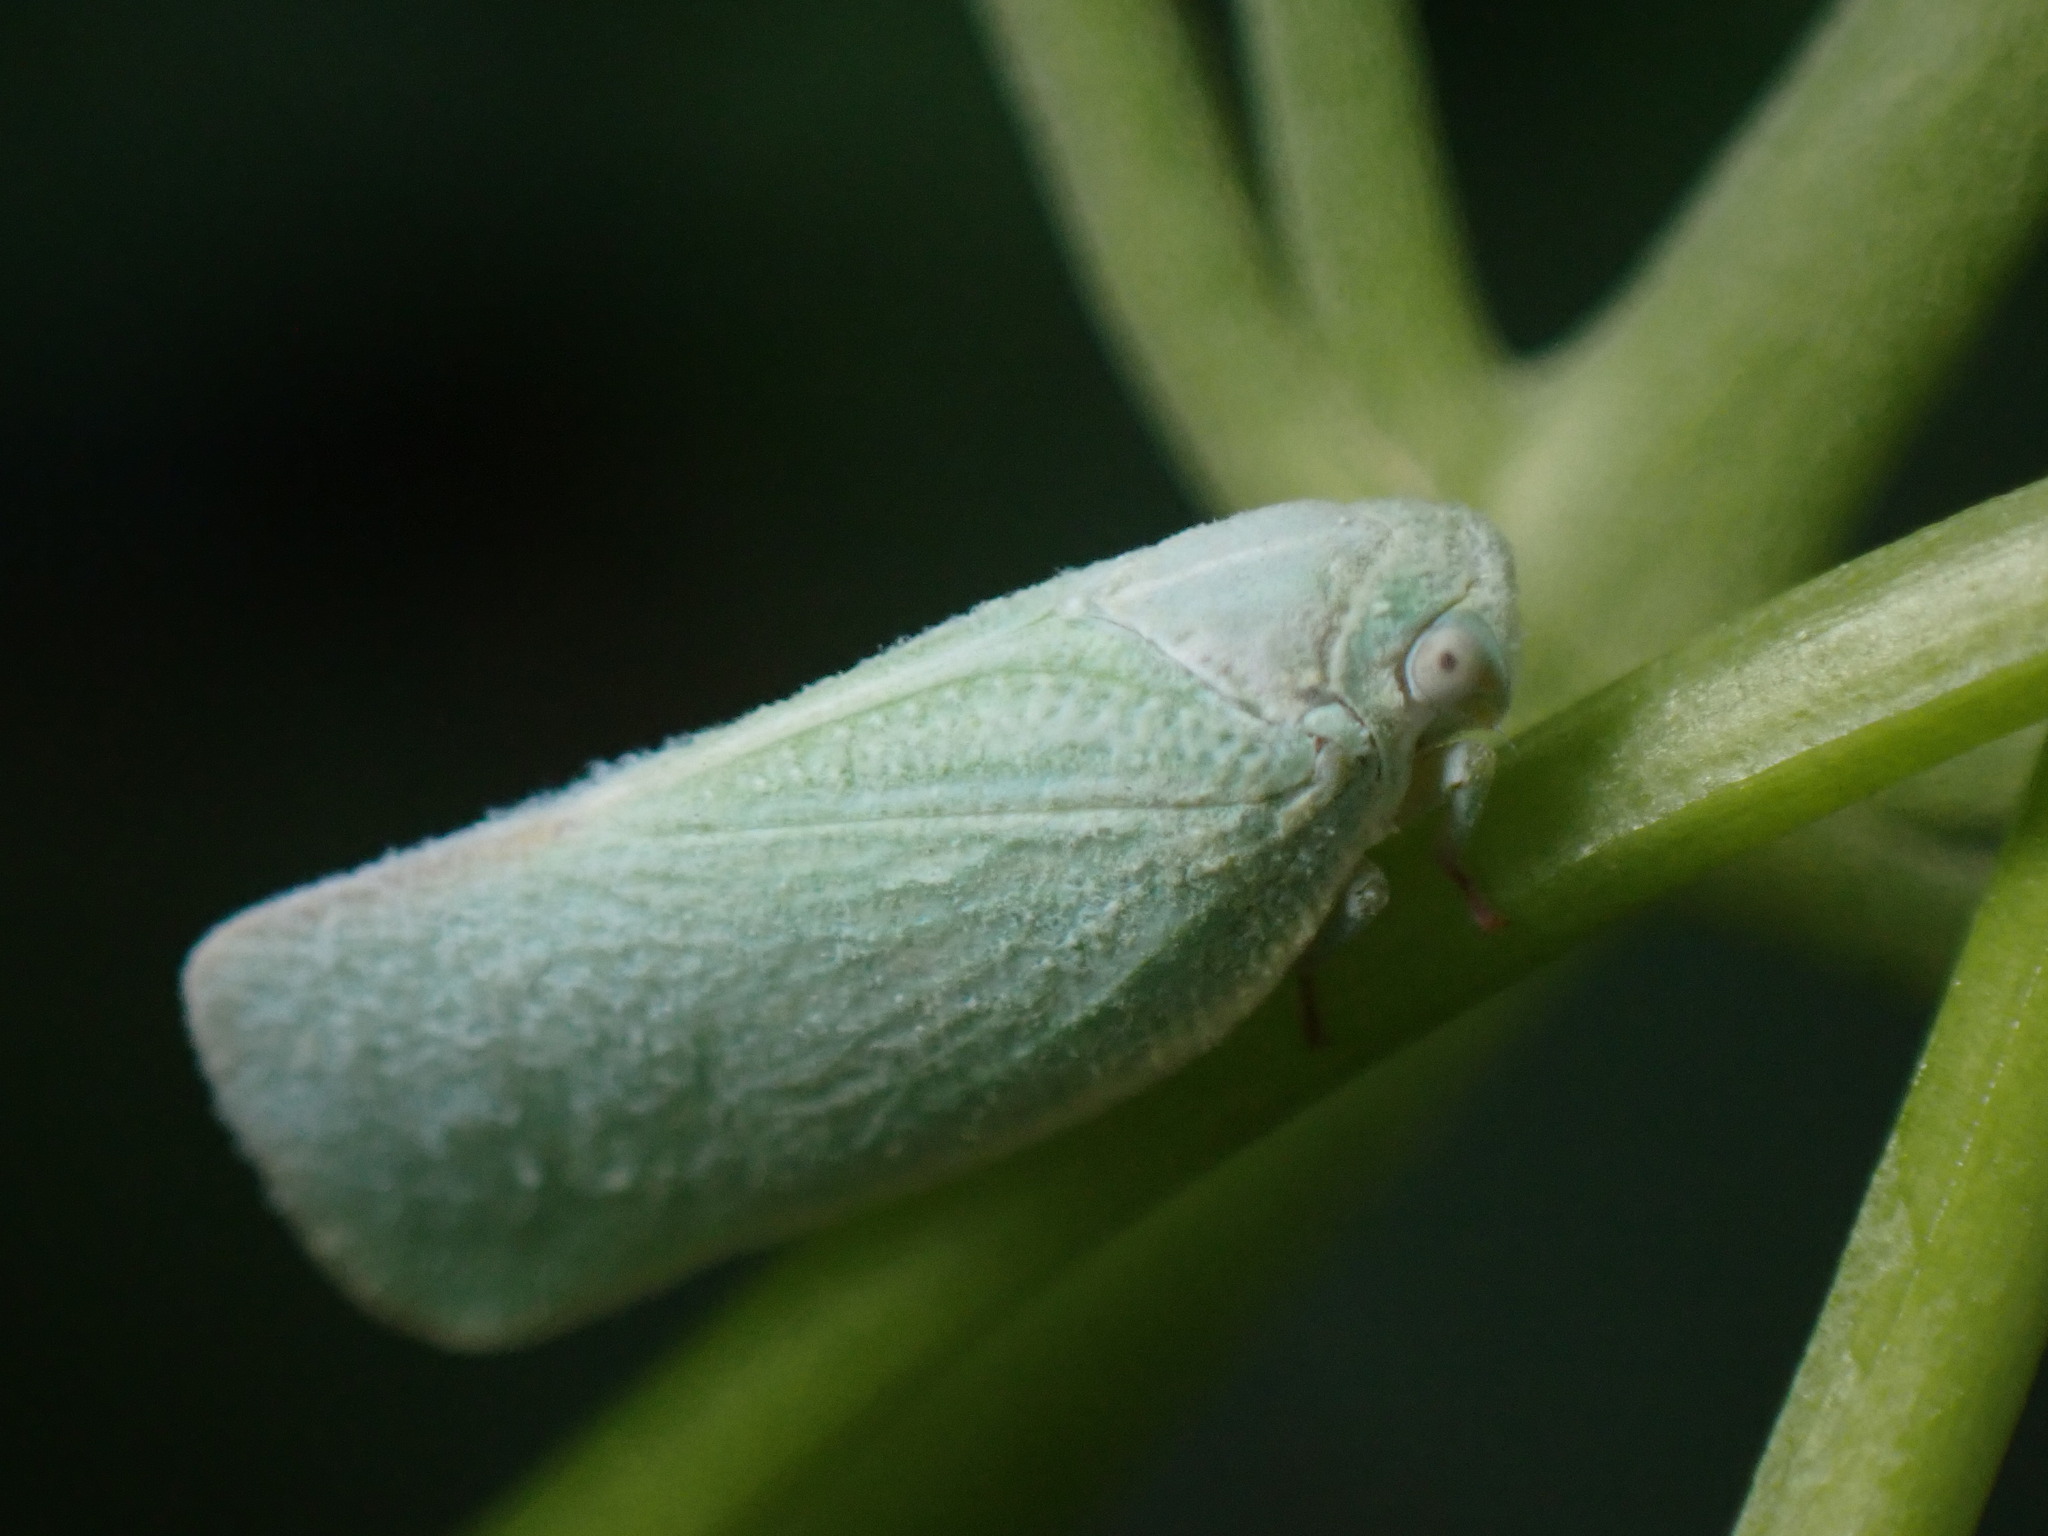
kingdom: Animalia
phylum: Arthropoda
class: Insecta
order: Hemiptera
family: Flatidae
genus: Flatormenis
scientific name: Flatormenis proxima
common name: Northern flatid planthopper
